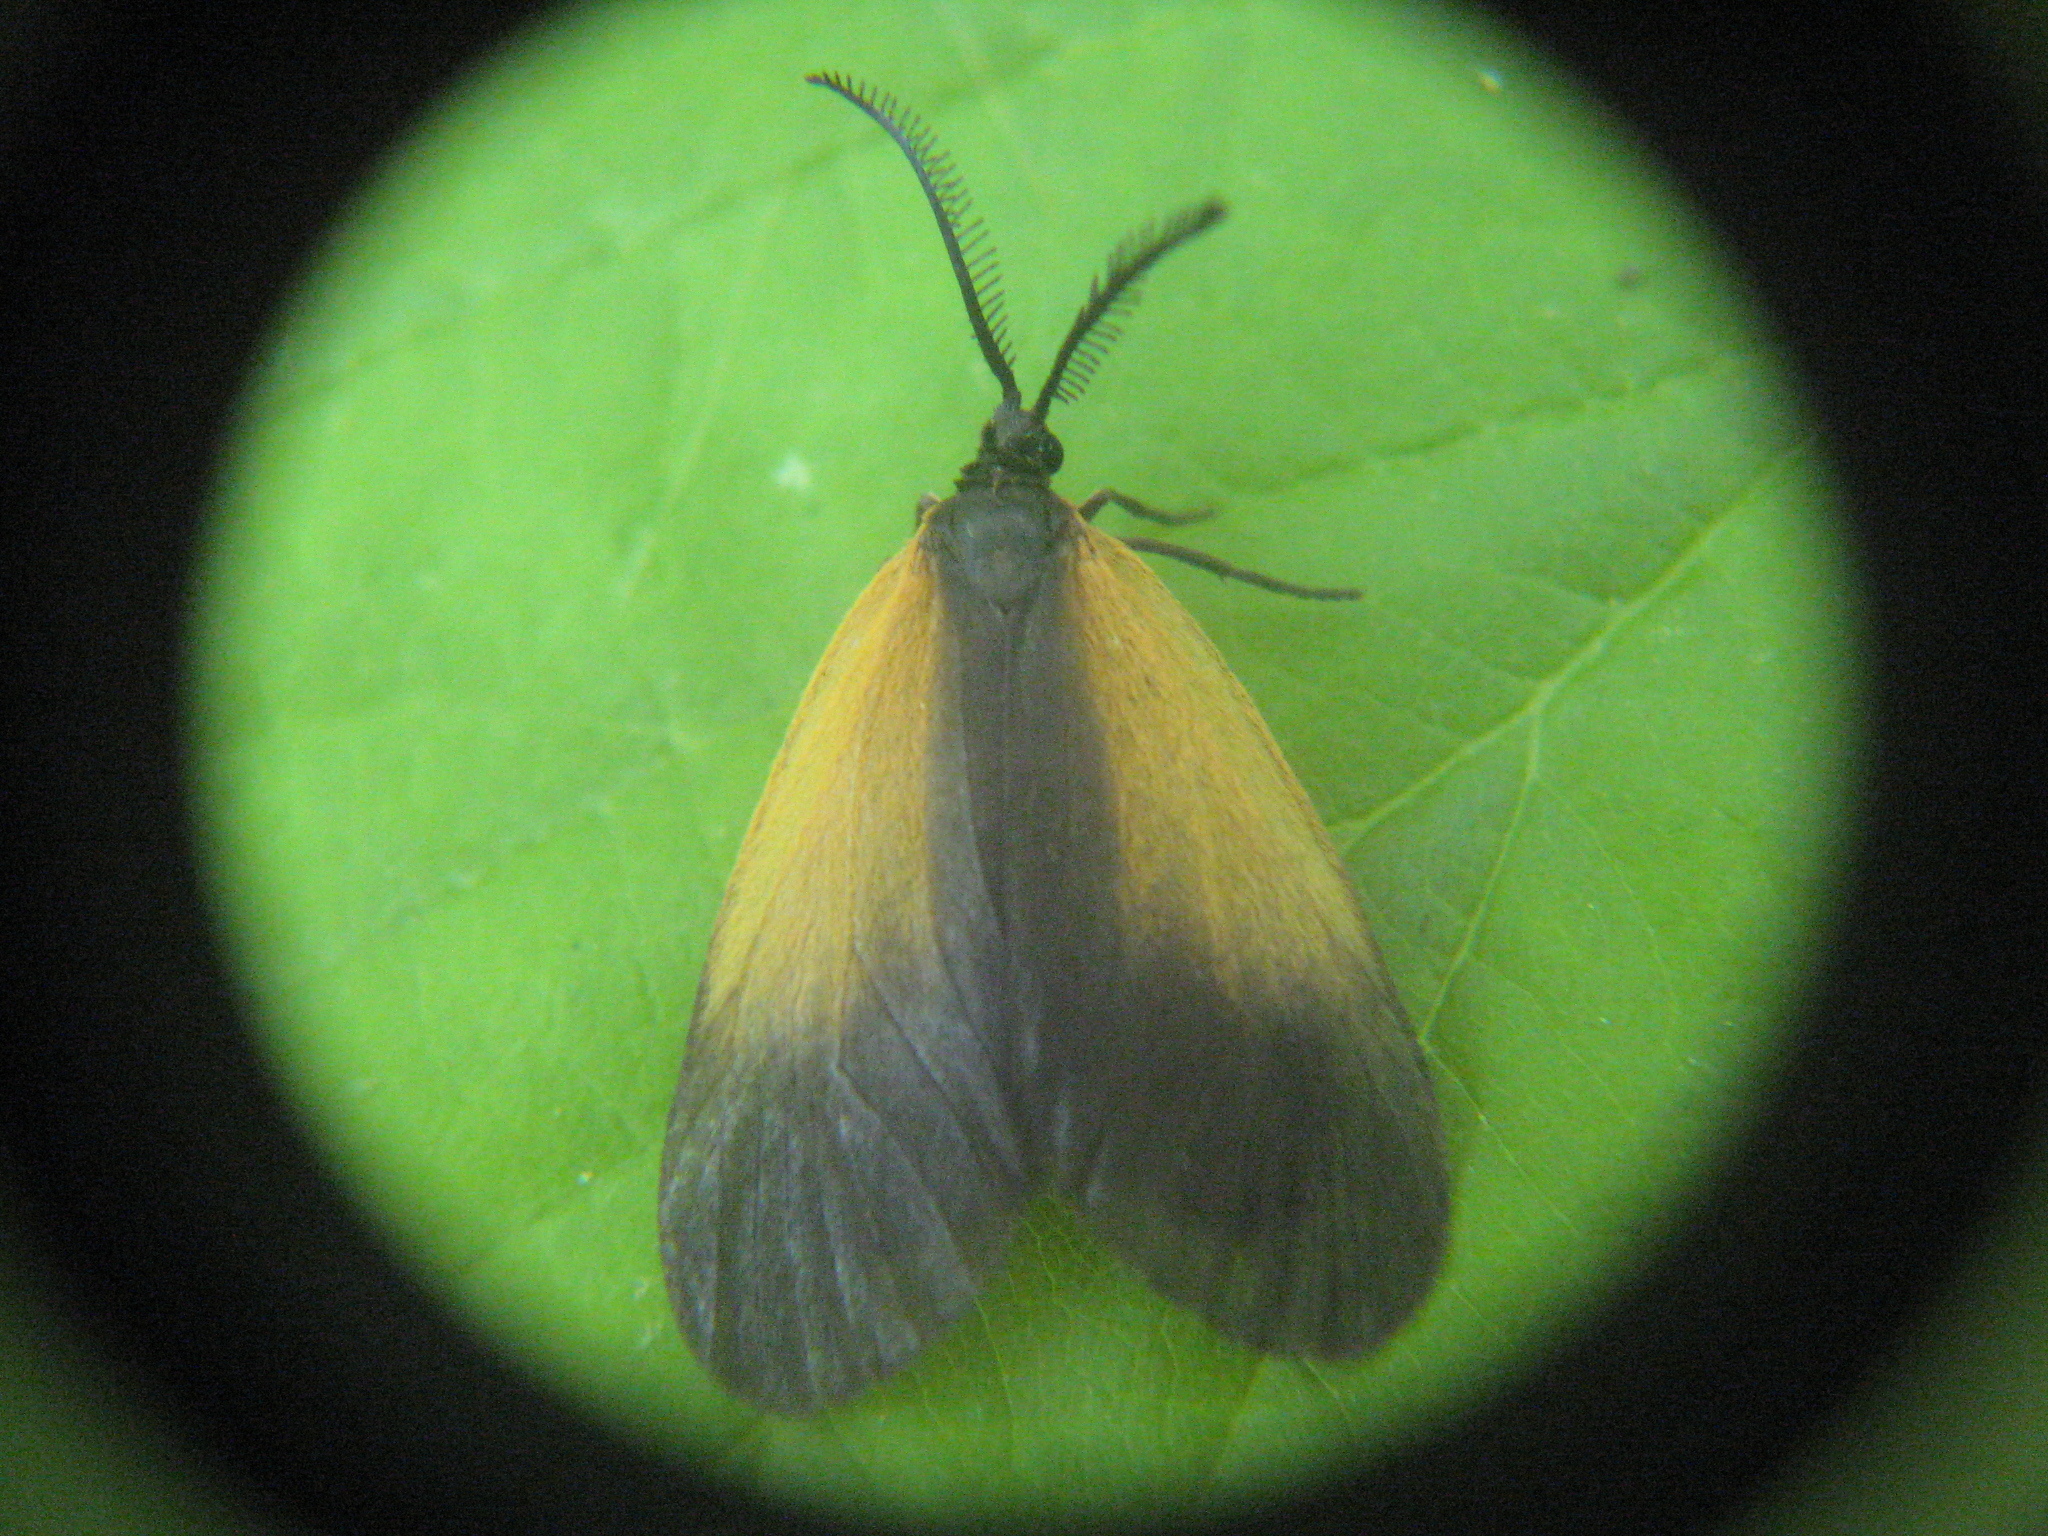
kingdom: Animalia
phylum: Arthropoda
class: Insecta
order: Lepidoptera
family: Zygaenidae
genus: Malthaca
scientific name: Malthaca dimidiata
